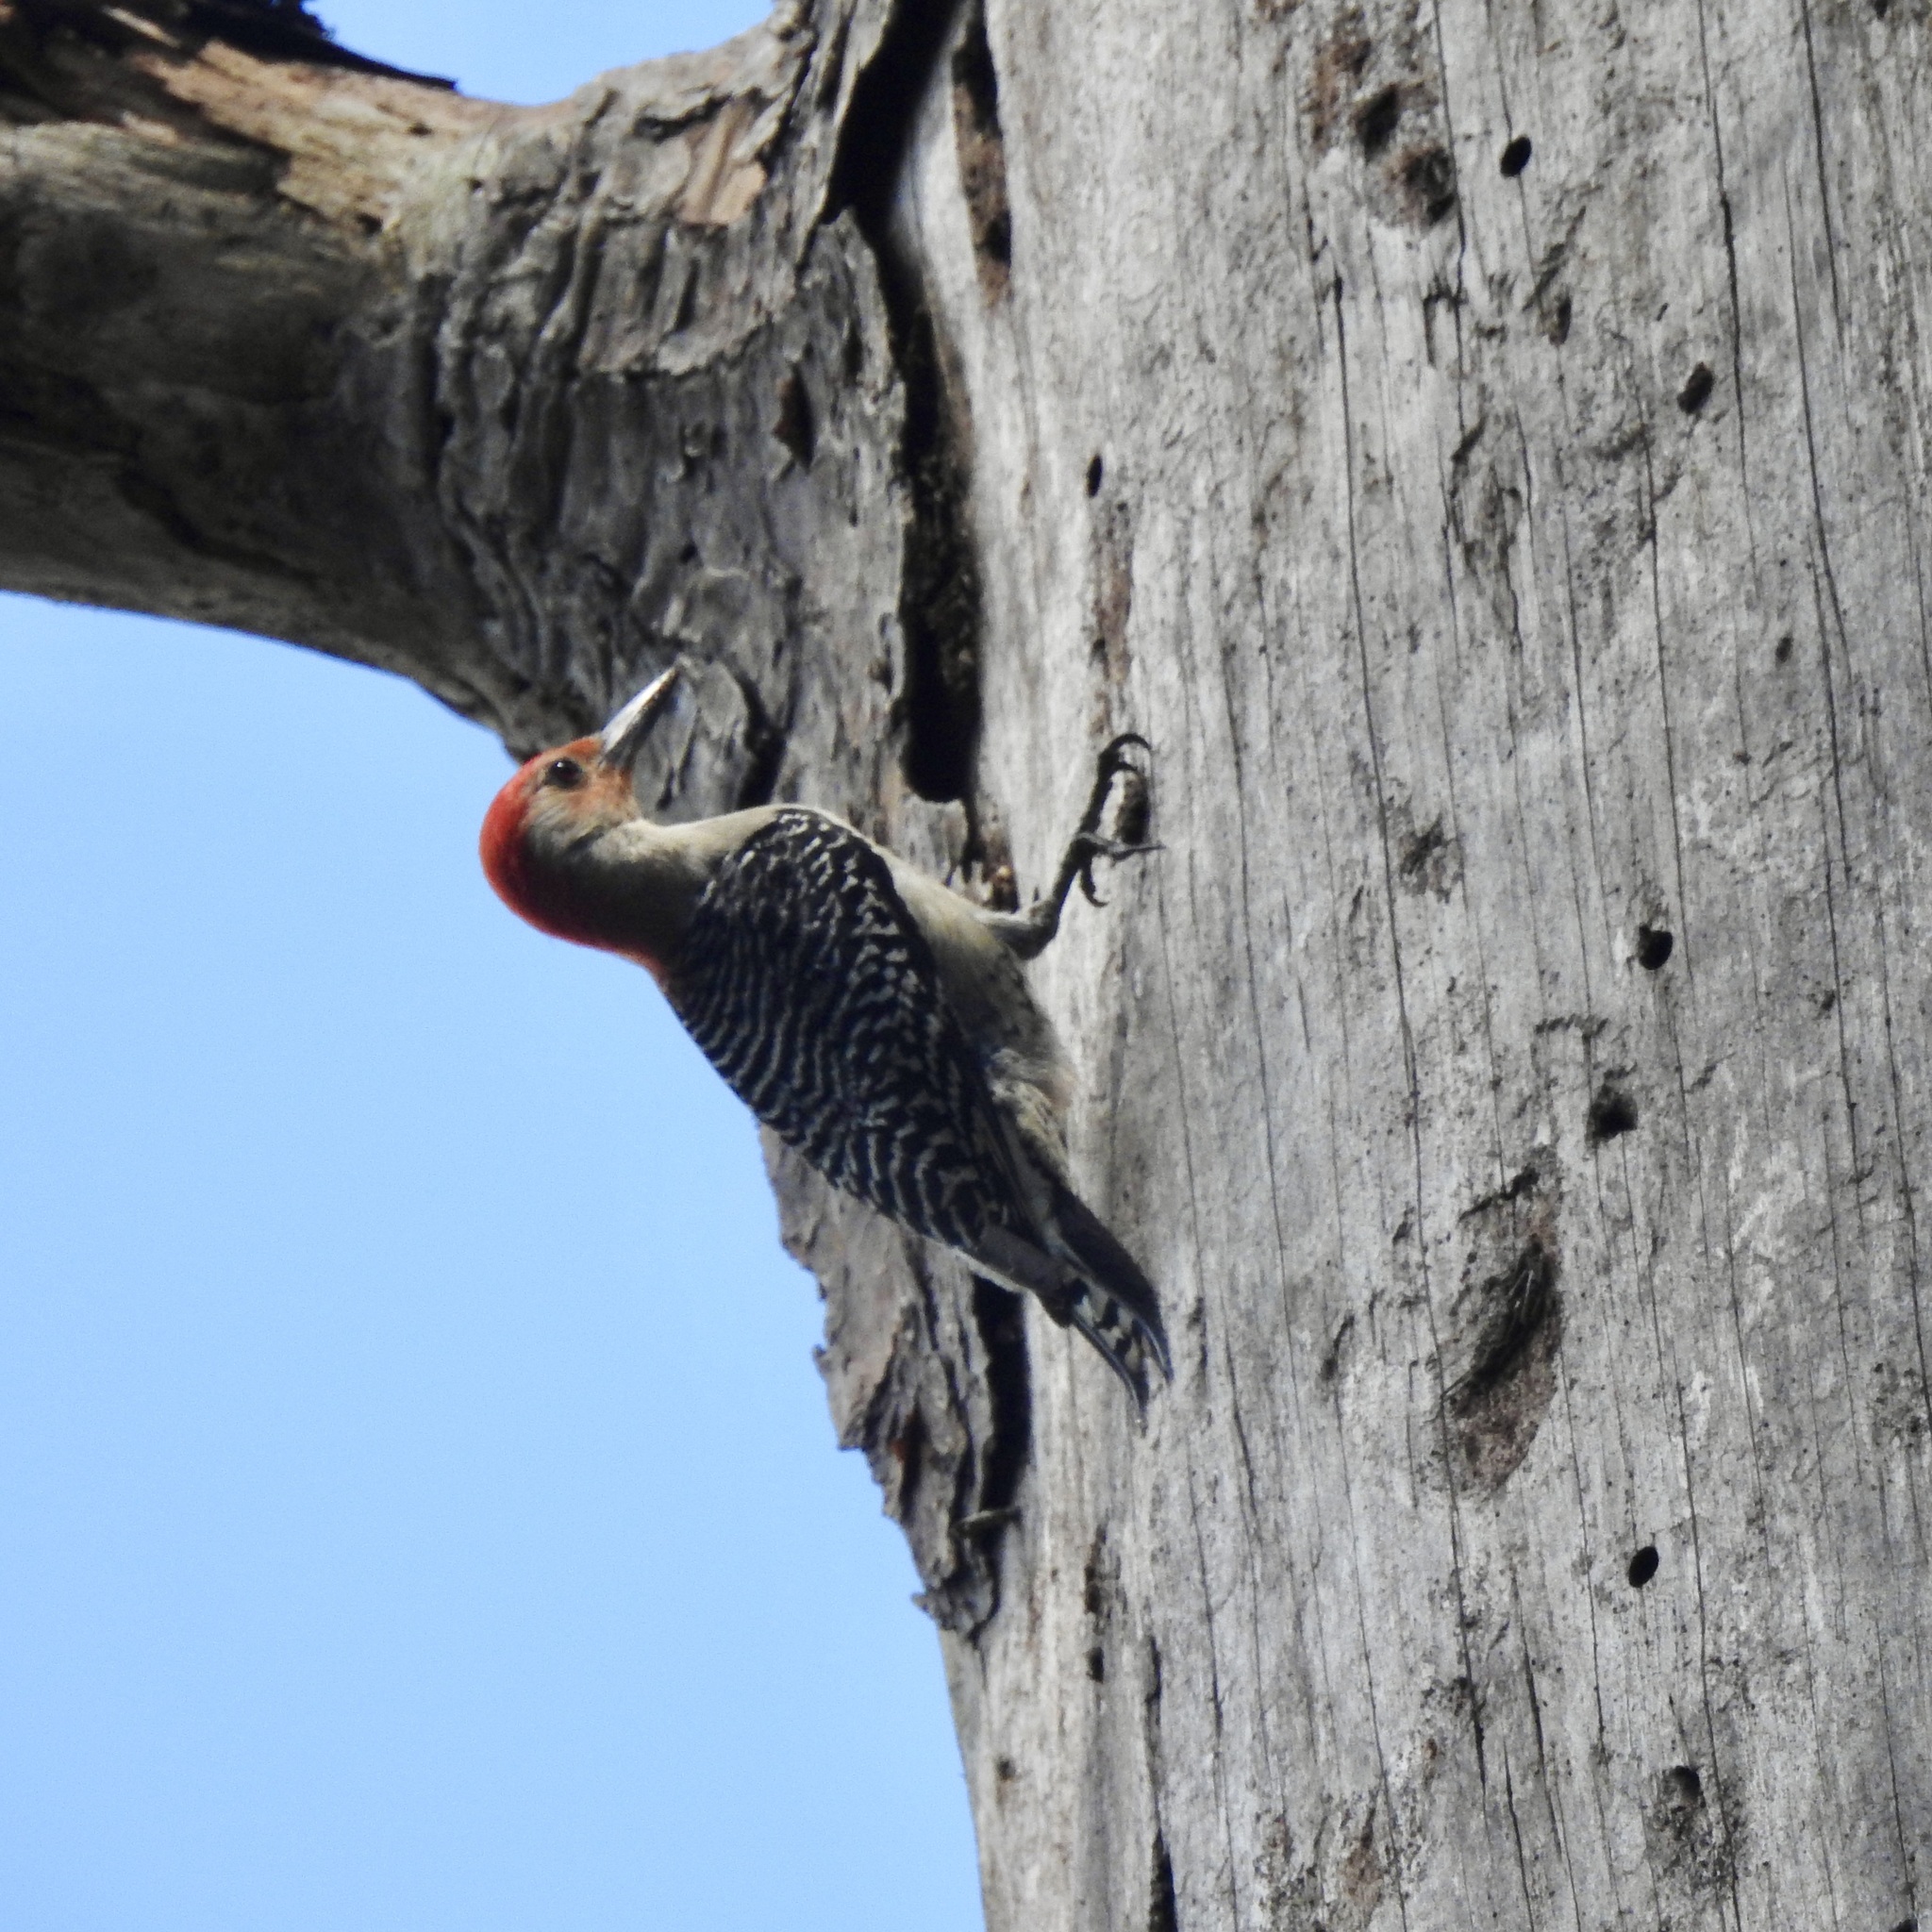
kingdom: Animalia
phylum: Chordata
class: Aves
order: Piciformes
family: Picidae
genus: Melanerpes
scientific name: Melanerpes carolinus
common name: Red-bellied woodpecker
